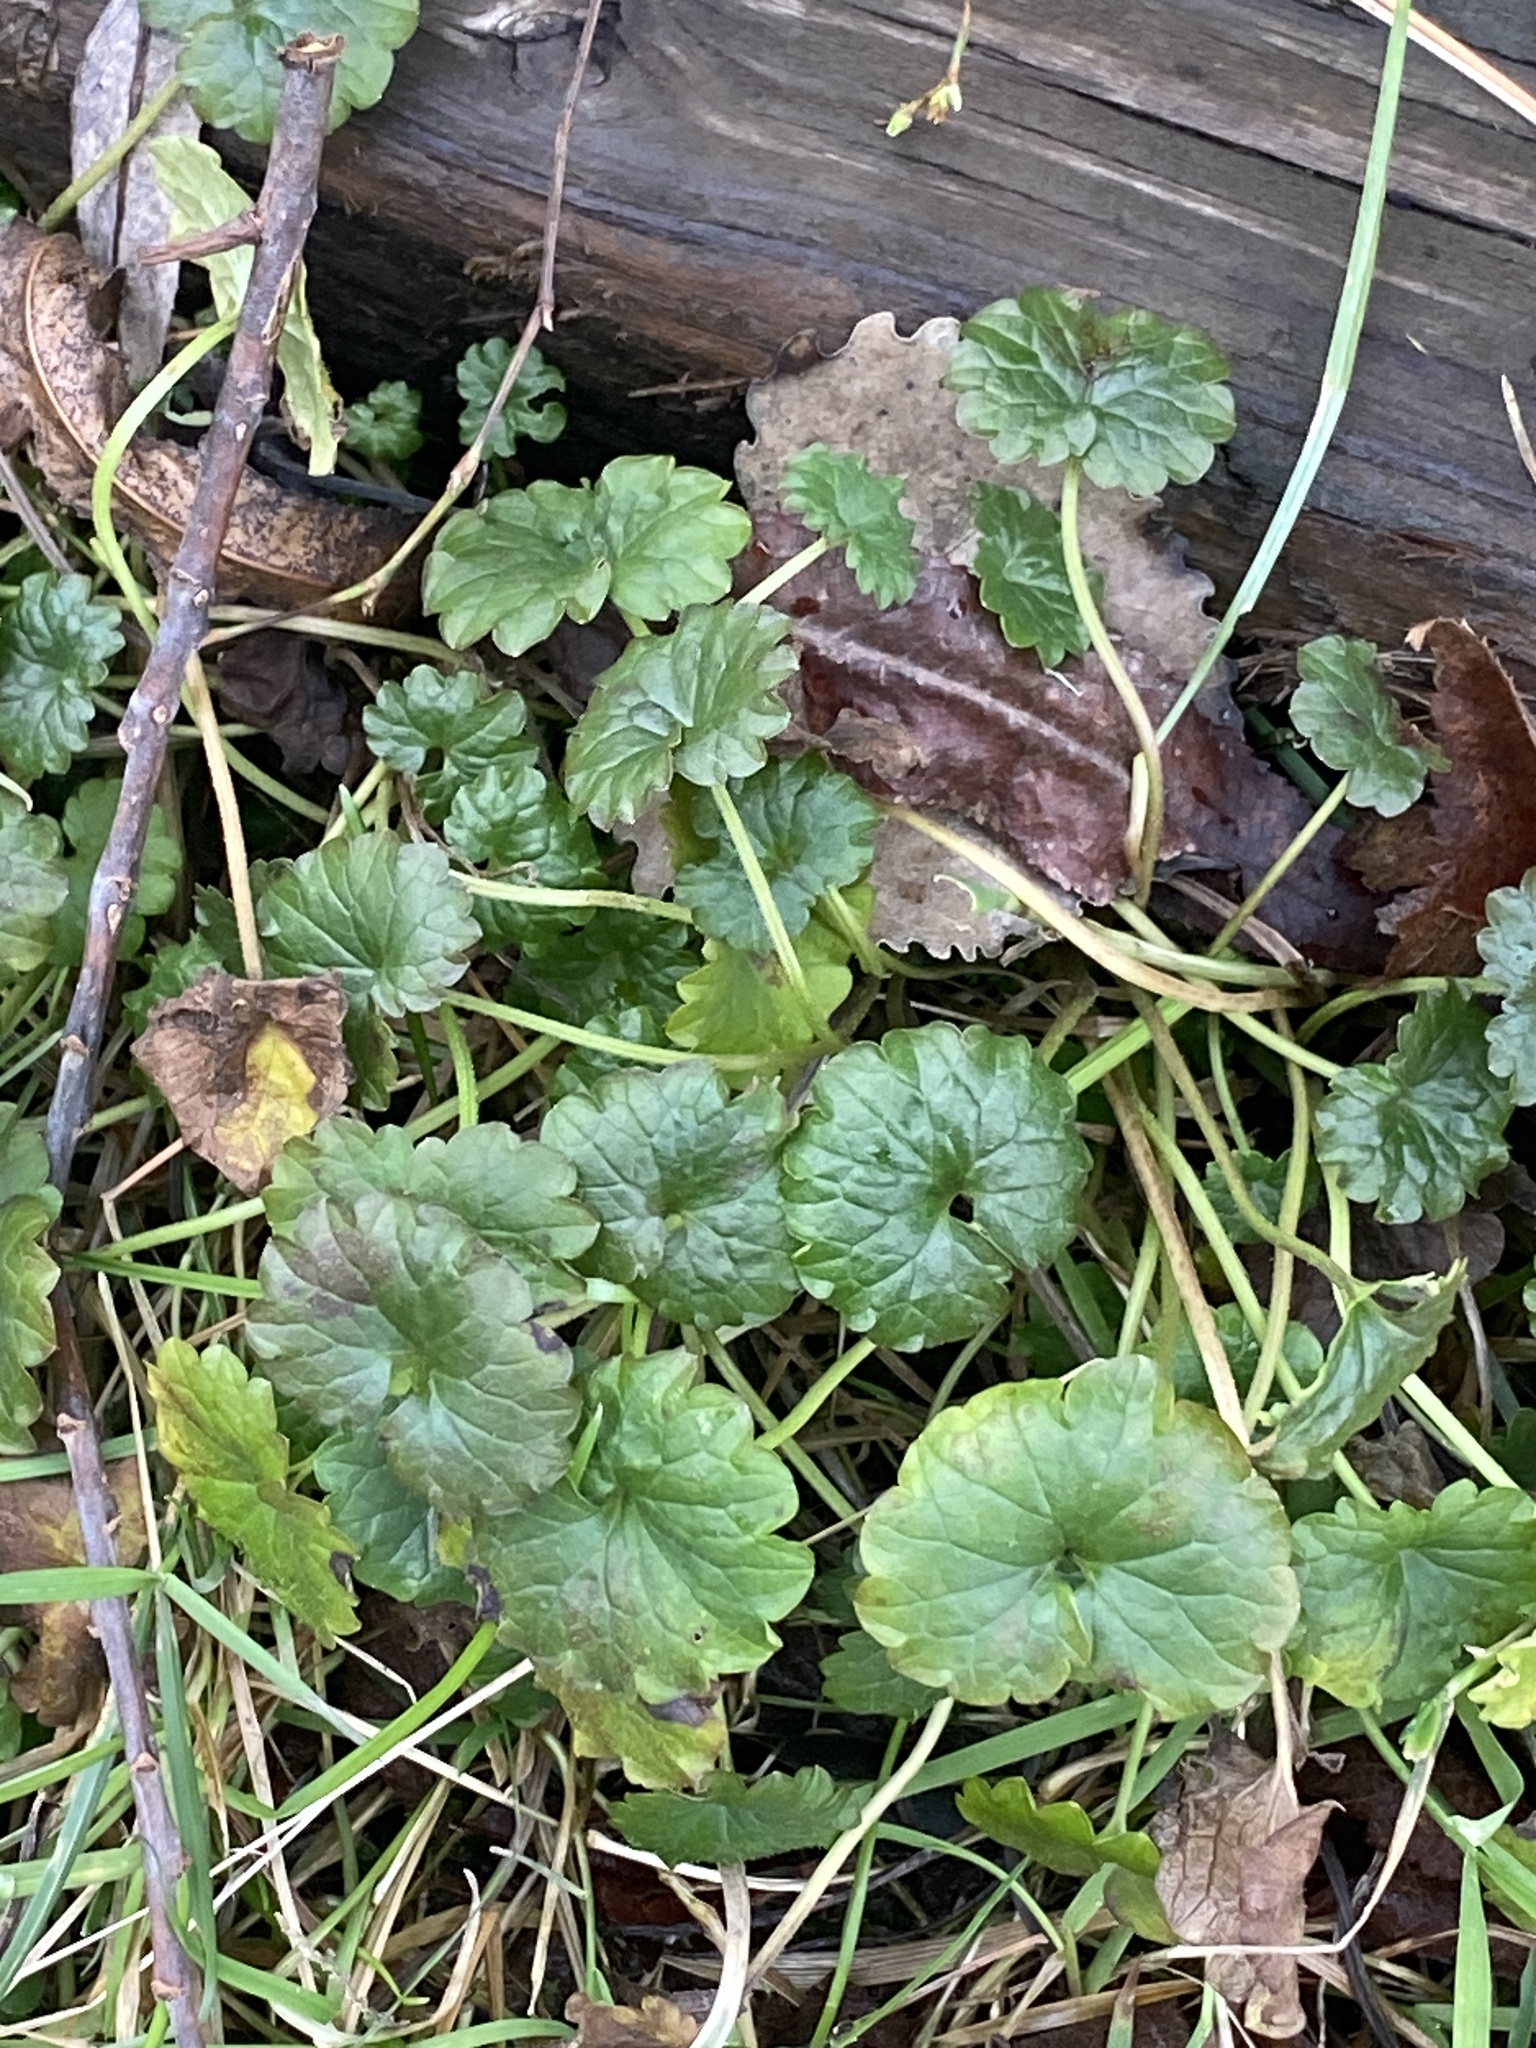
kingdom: Plantae
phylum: Tracheophyta
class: Magnoliopsida
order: Lamiales
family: Lamiaceae
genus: Glechoma
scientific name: Glechoma hederacea
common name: Ground ivy
